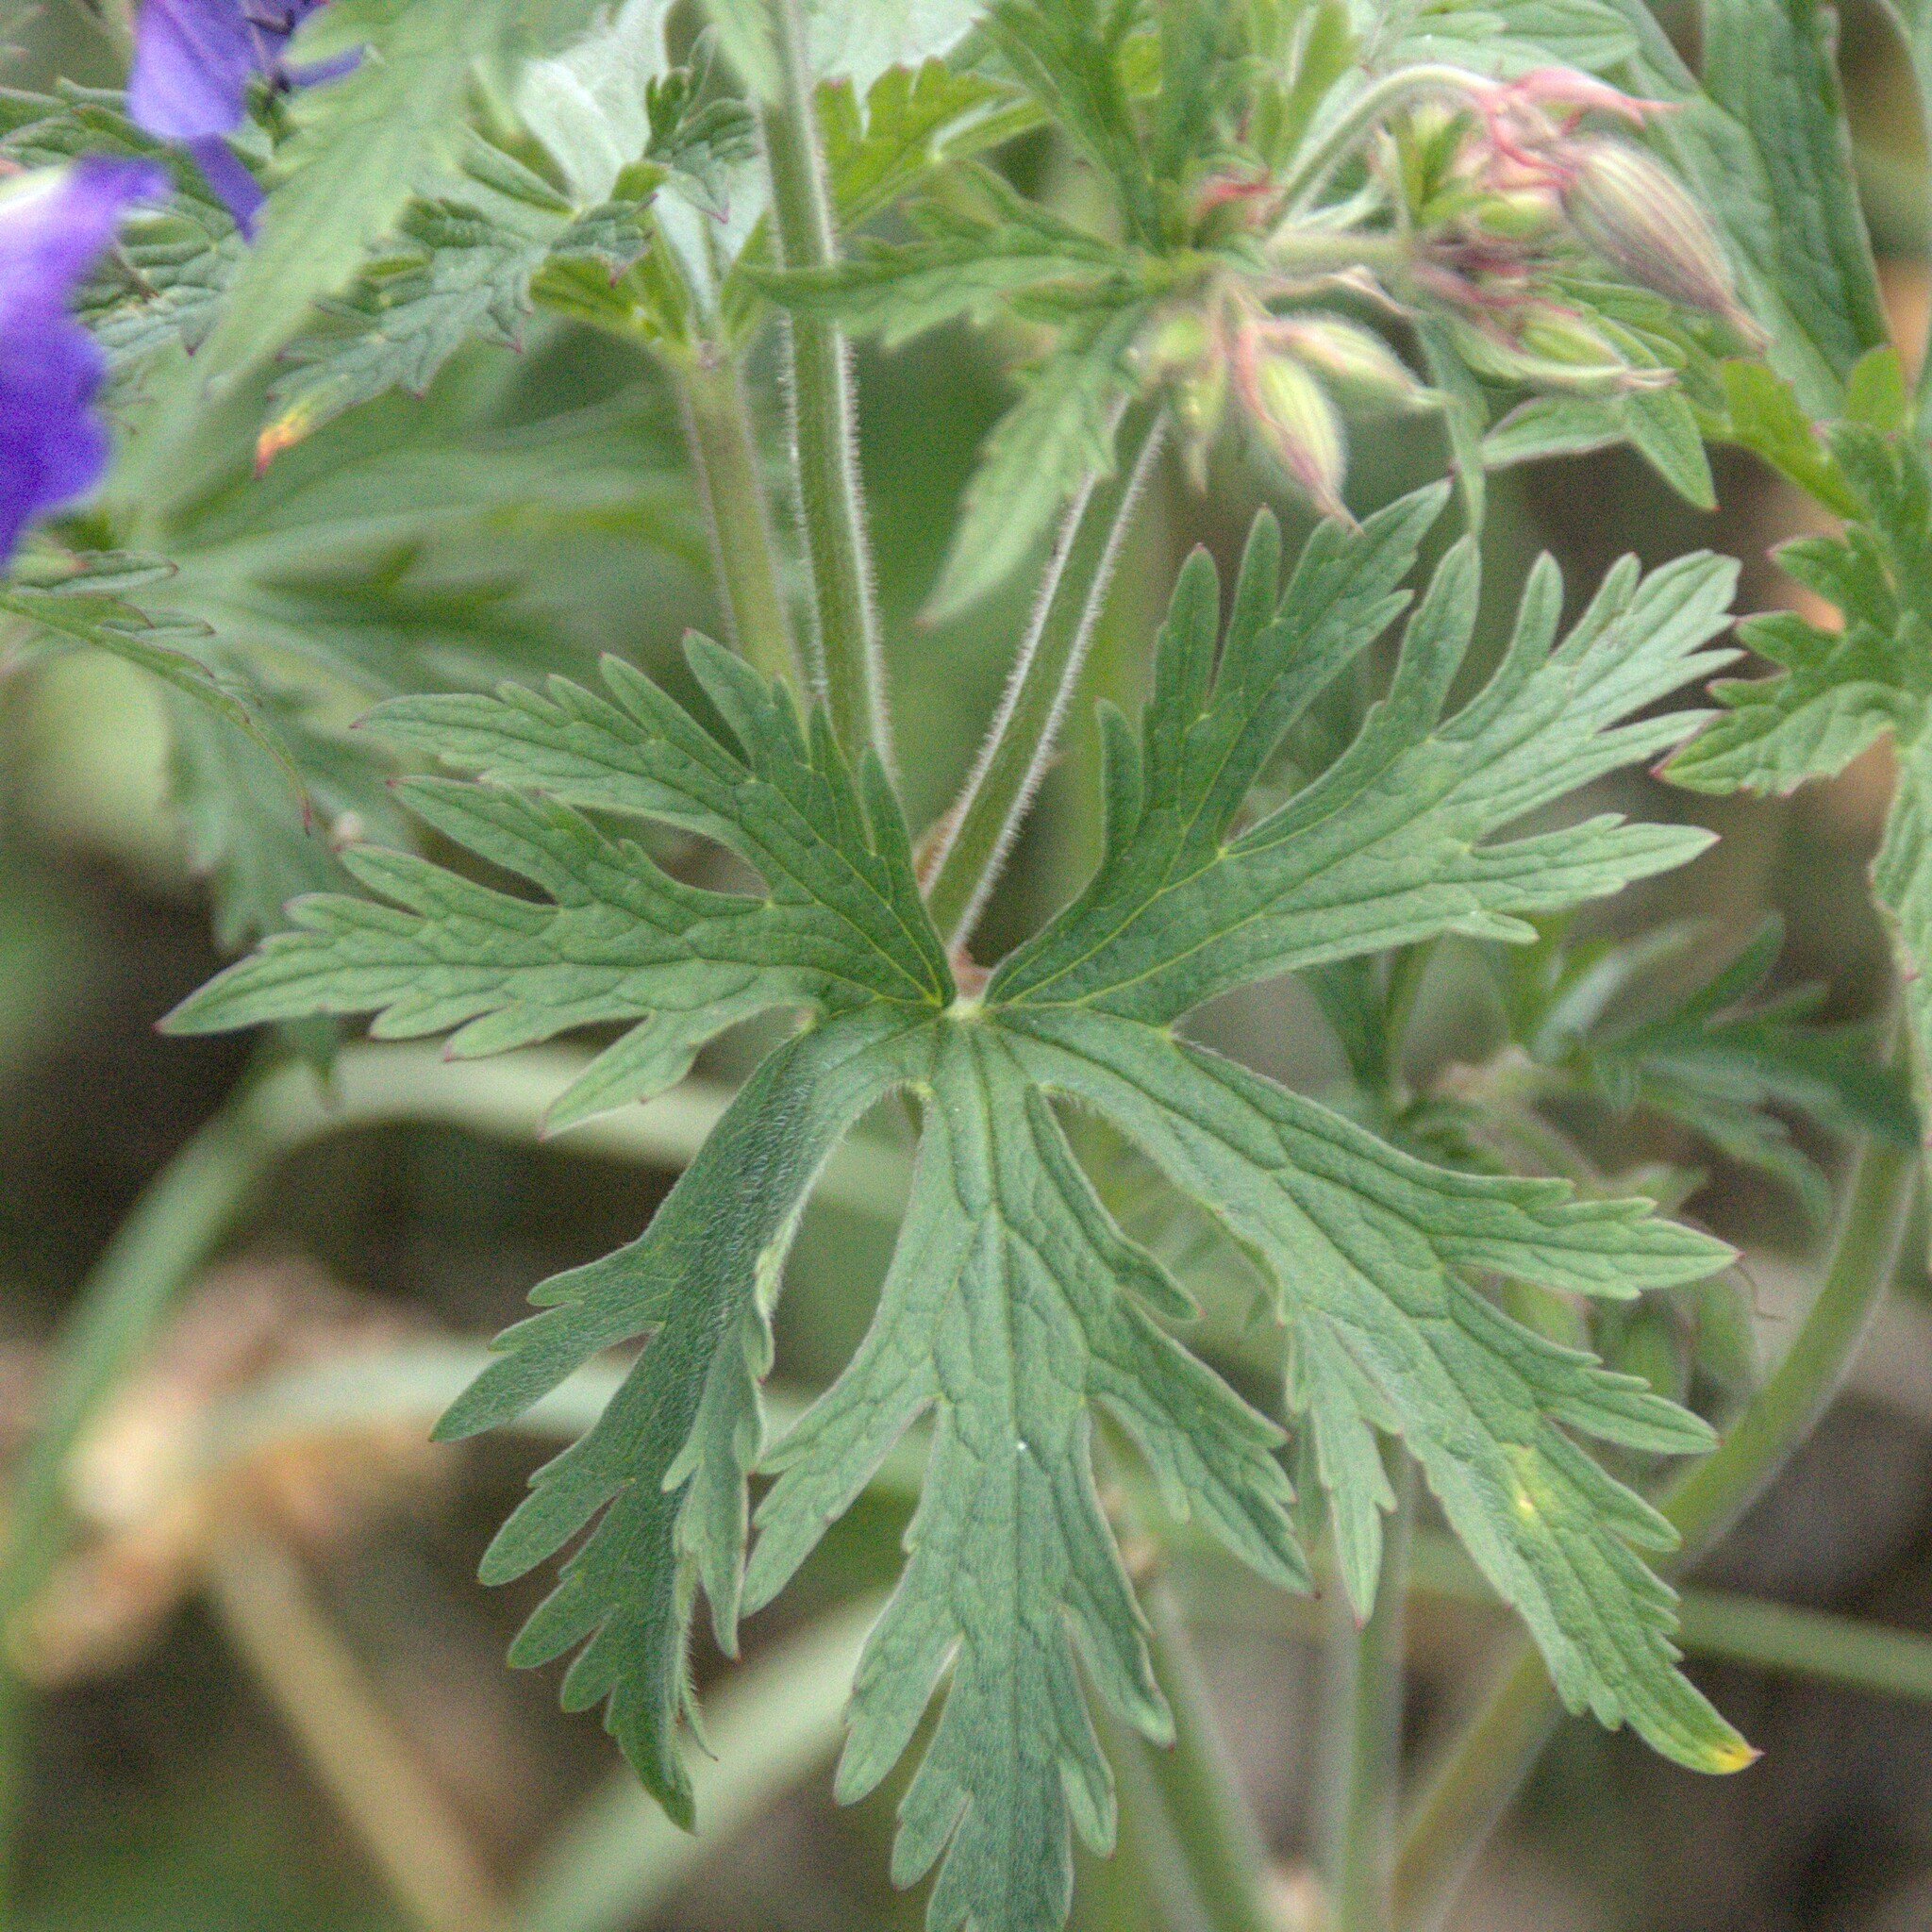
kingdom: Plantae
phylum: Tracheophyta
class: Magnoliopsida
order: Geraniales
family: Geraniaceae
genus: Geranium
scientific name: Geranium pratense
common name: Meadow crane's-bill
